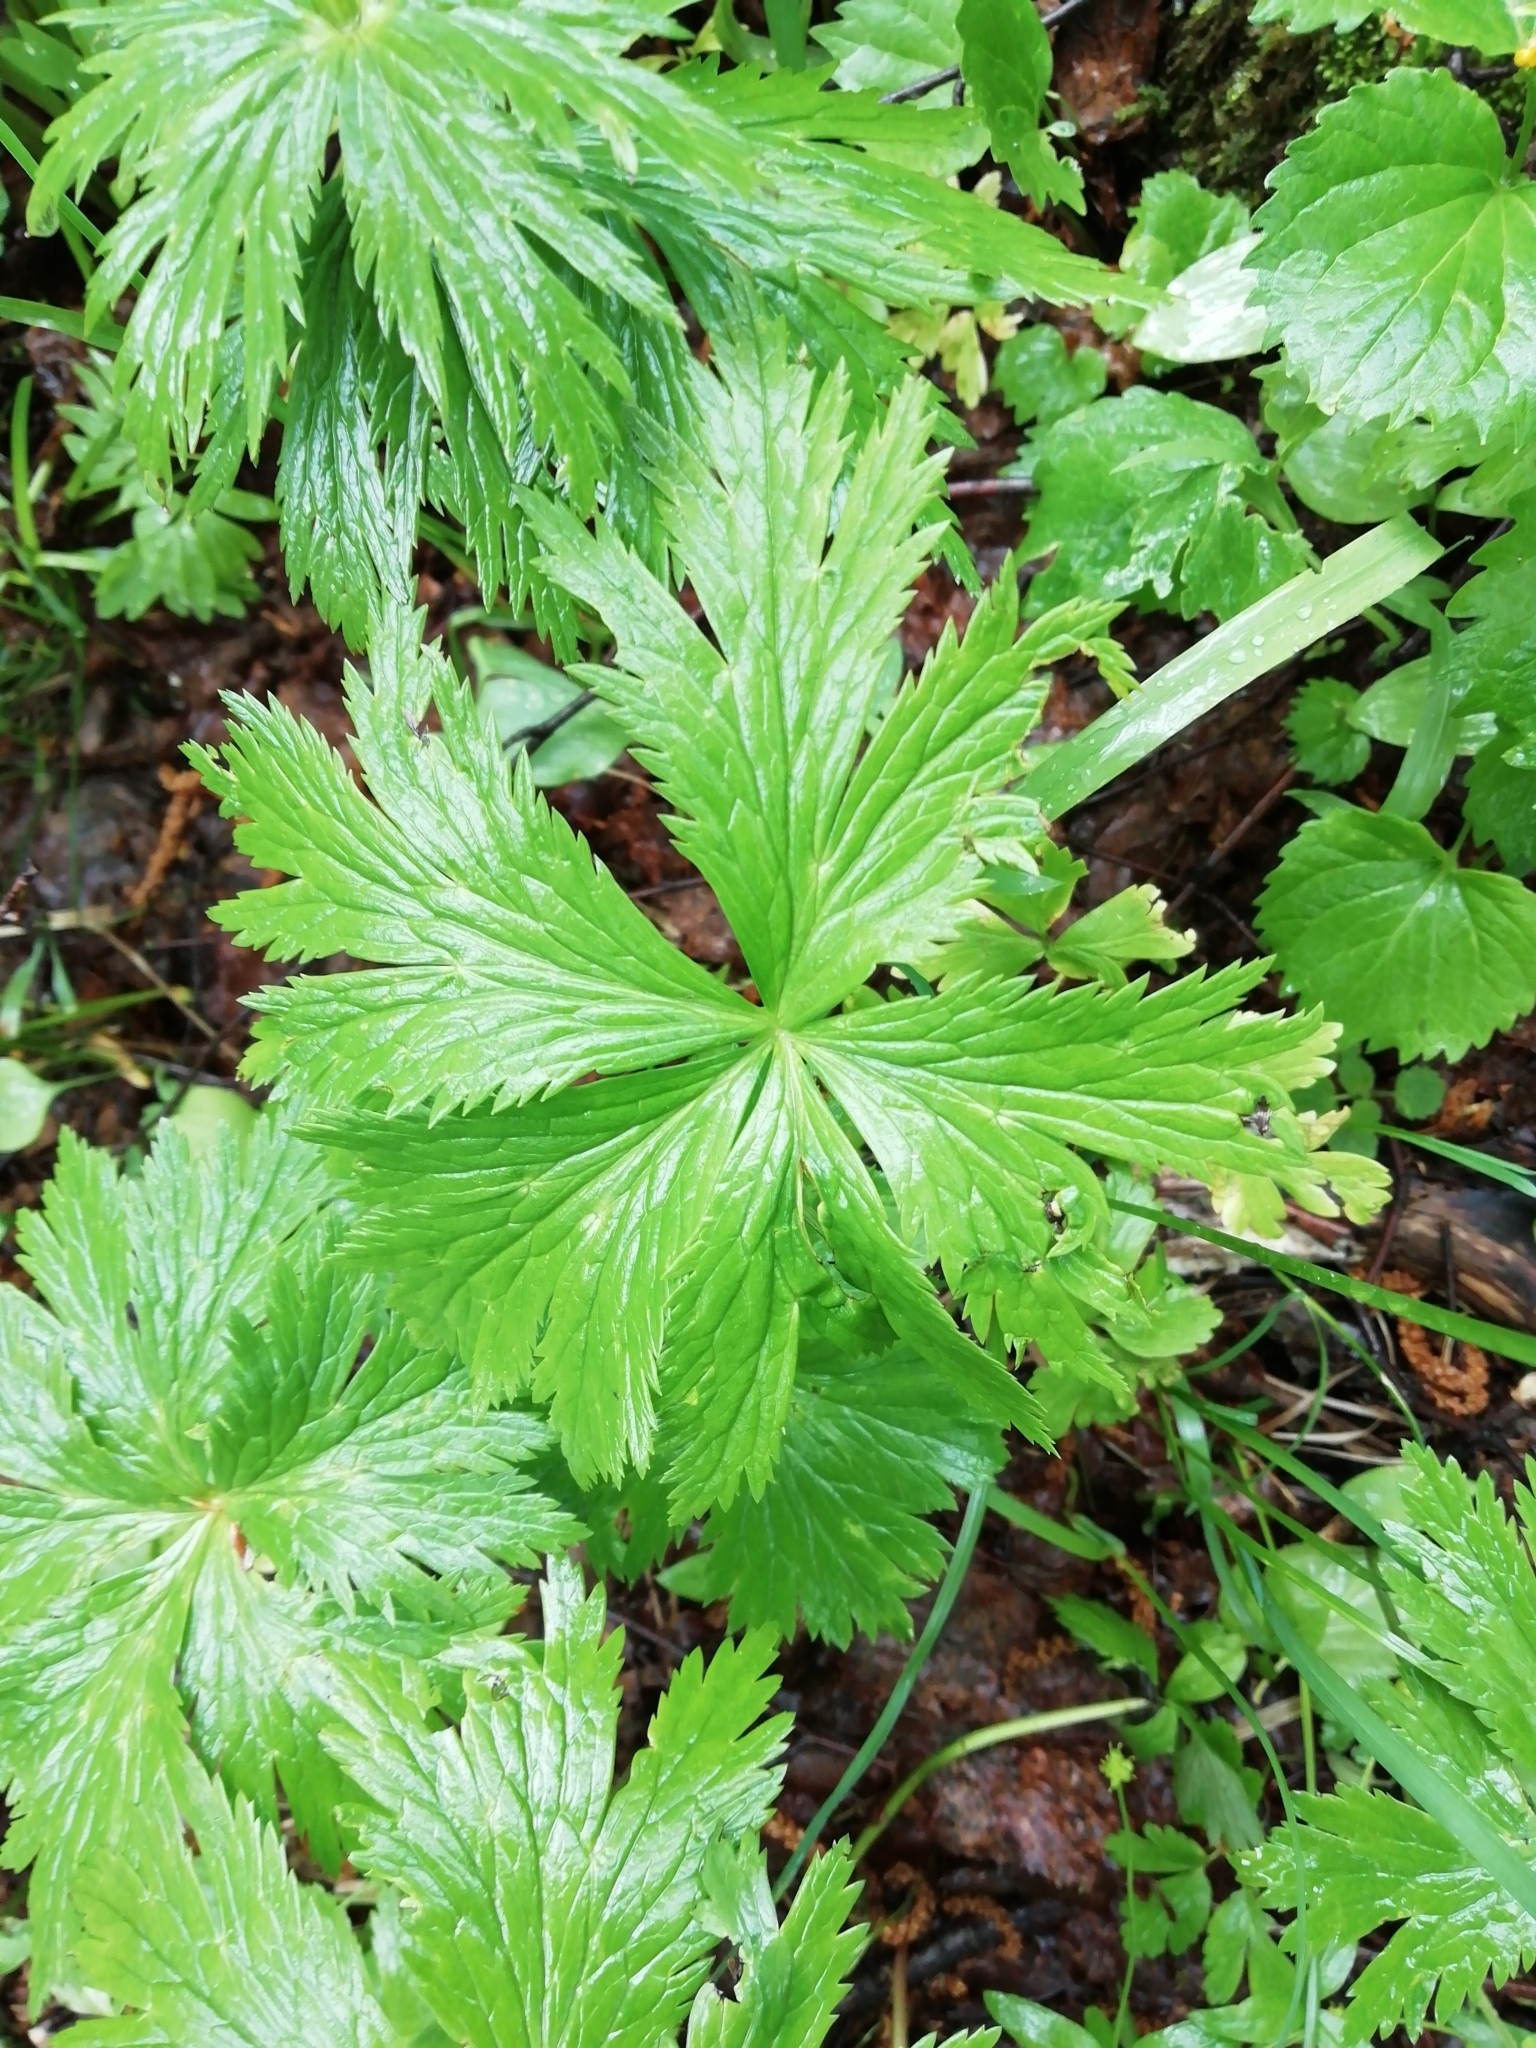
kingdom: Plantae
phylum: Tracheophyta
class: Magnoliopsida
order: Ranunculales
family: Ranunculaceae
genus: Trollius
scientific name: Trollius asiaticus
